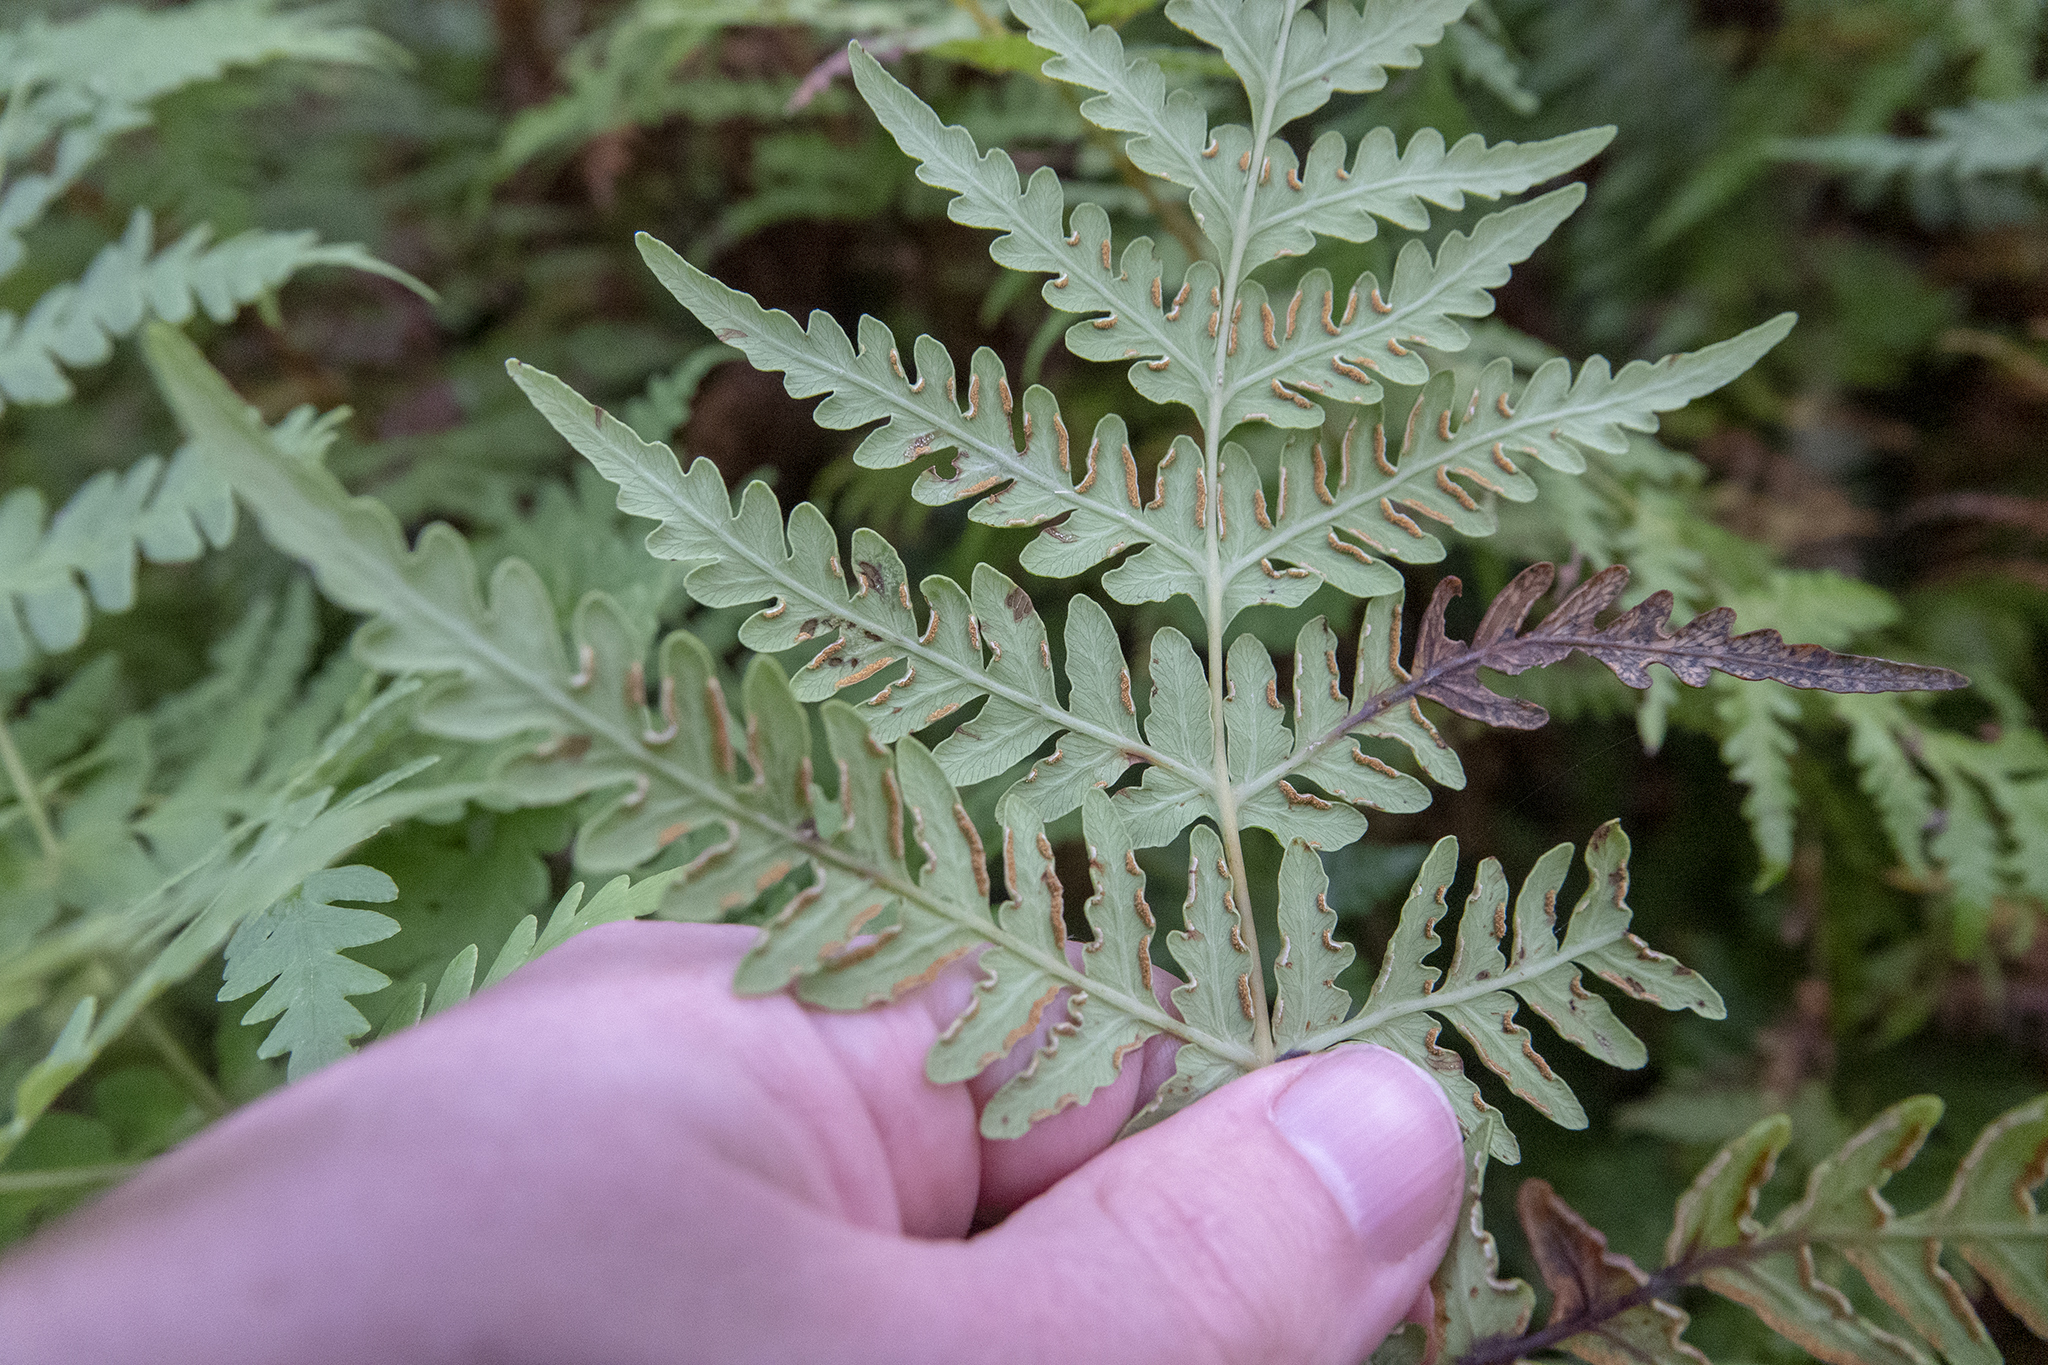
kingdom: Plantae
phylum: Tracheophyta
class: Polypodiopsida
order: Polypodiales
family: Dennstaedtiaceae
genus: Histiopteris
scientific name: Histiopteris incisa
